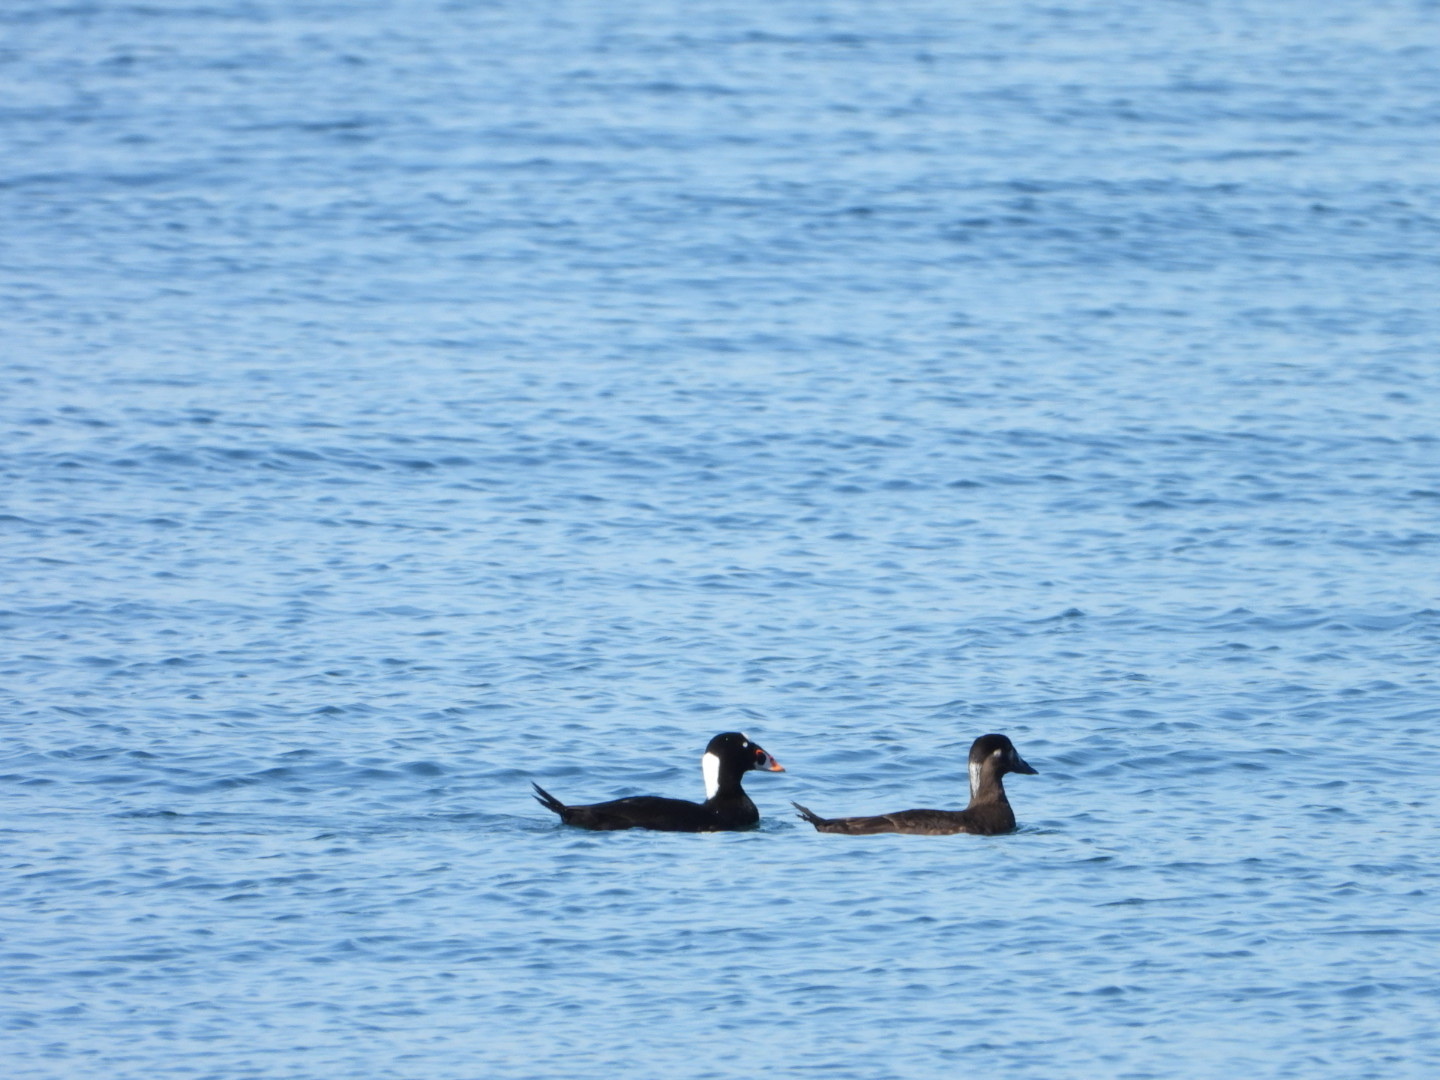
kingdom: Animalia
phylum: Chordata
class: Aves
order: Anseriformes
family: Anatidae
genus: Melanitta
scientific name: Melanitta perspicillata
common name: Surf scoter
